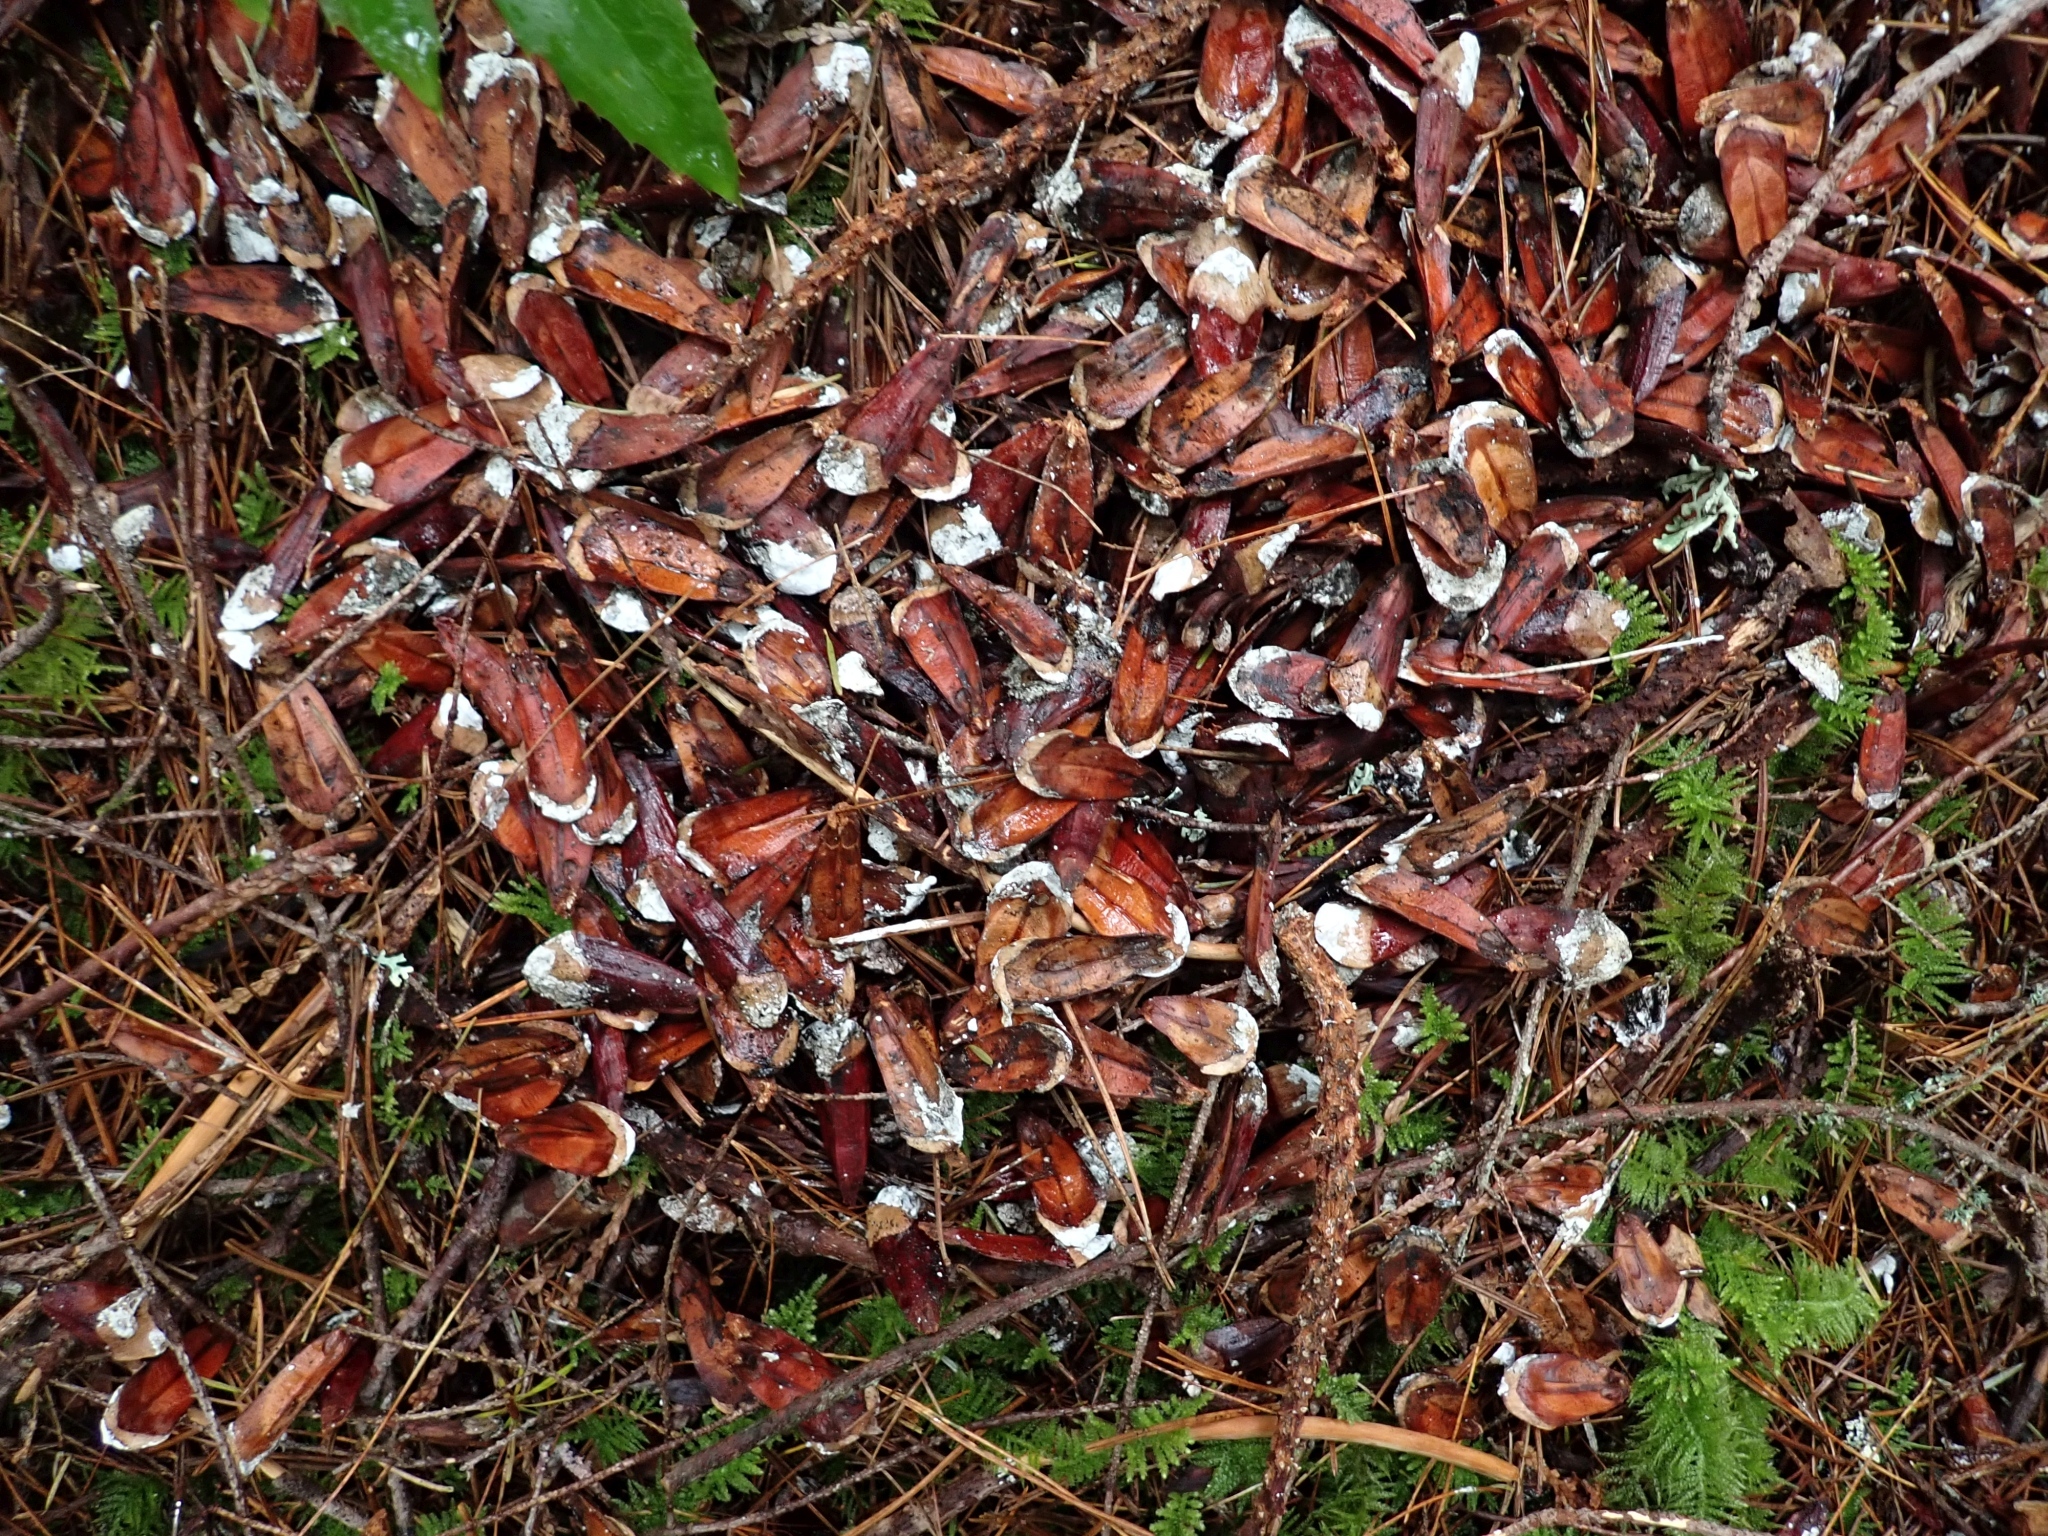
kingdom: Animalia
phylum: Chordata
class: Mammalia
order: Rodentia
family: Sciuridae
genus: Tamiasciurus
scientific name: Tamiasciurus hudsonicus
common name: Red squirrel
